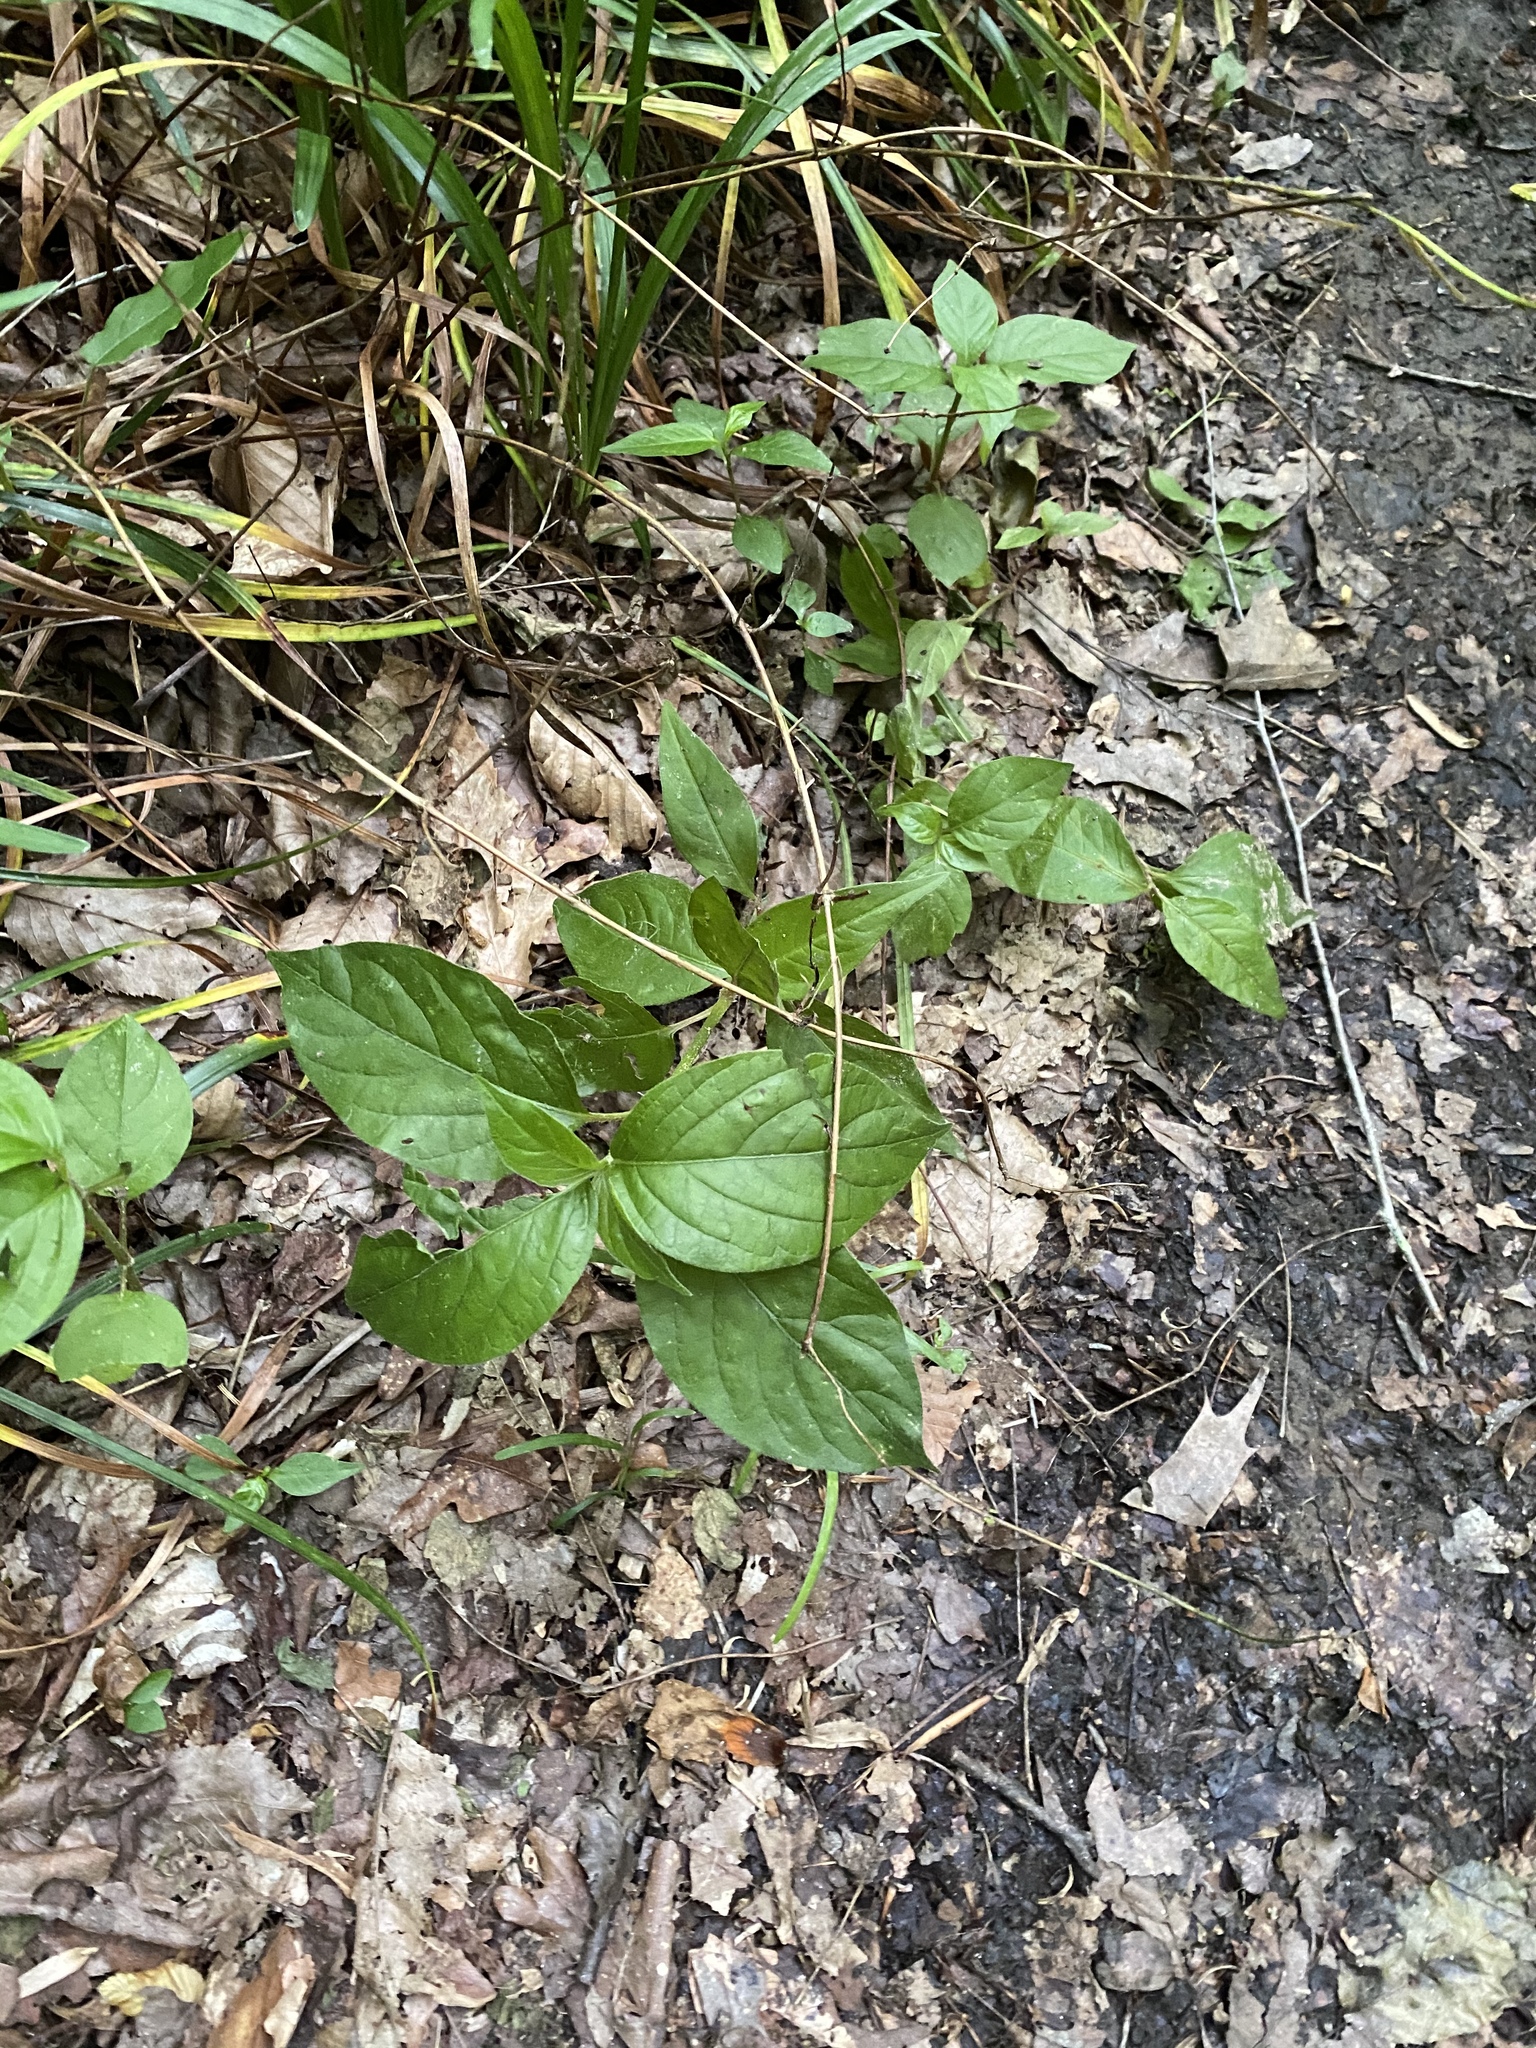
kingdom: Plantae
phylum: Tracheophyta
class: Magnoliopsida
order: Caryophyllales
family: Amaranthaceae
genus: Achyranthes
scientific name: Achyranthes bidentata
